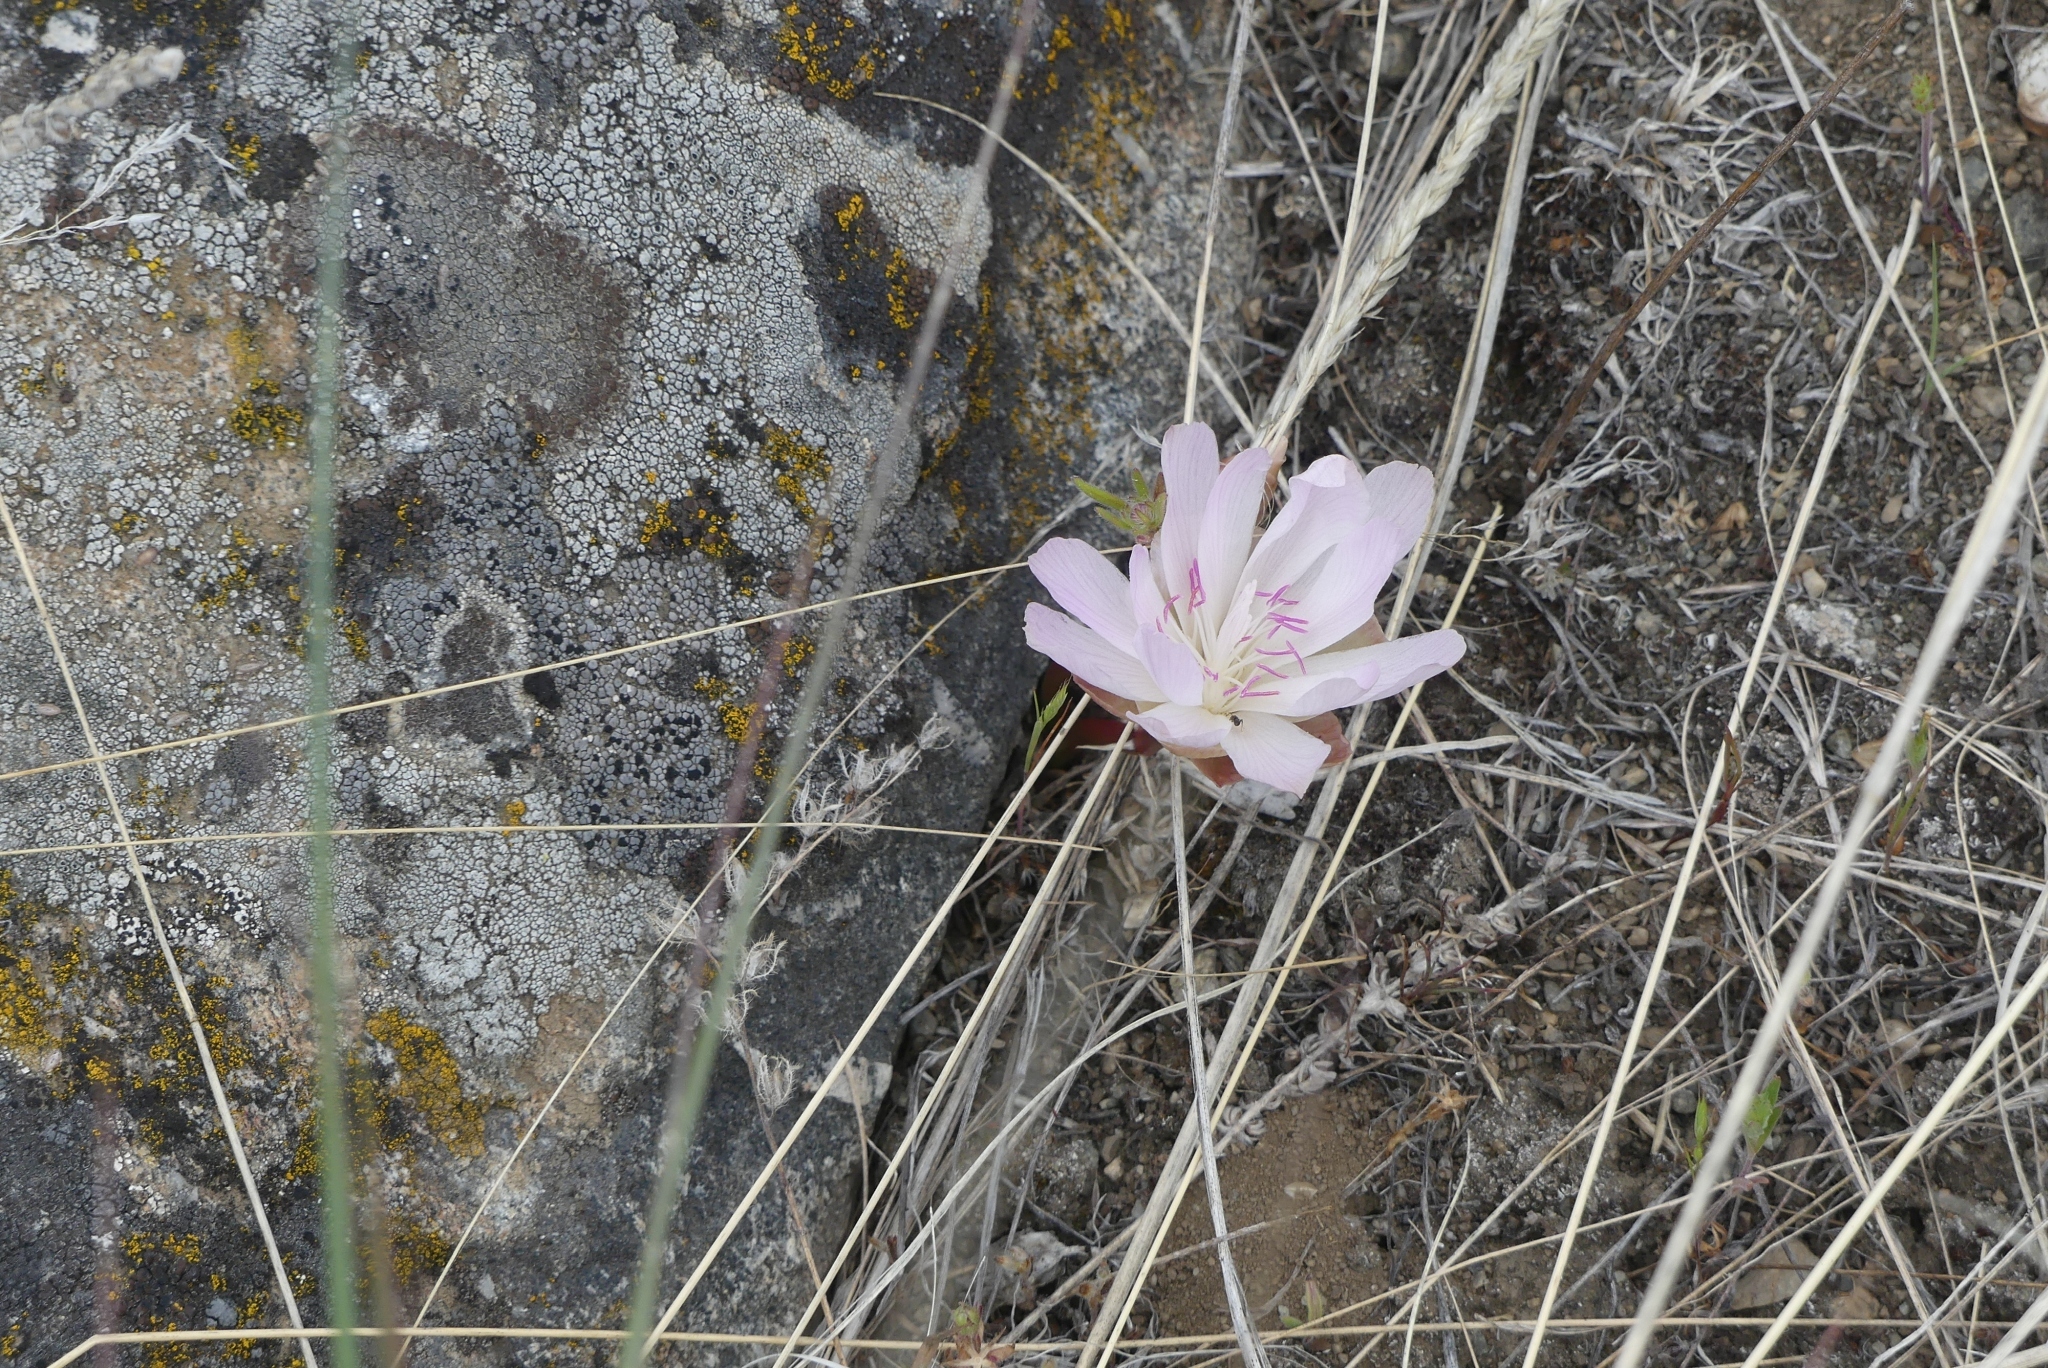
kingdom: Plantae
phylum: Tracheophyta
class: Magnoliopsida
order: Caryophyllales
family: Montiaceae
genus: Lewisia
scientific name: Lewisia rediviva
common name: Bitter-root
